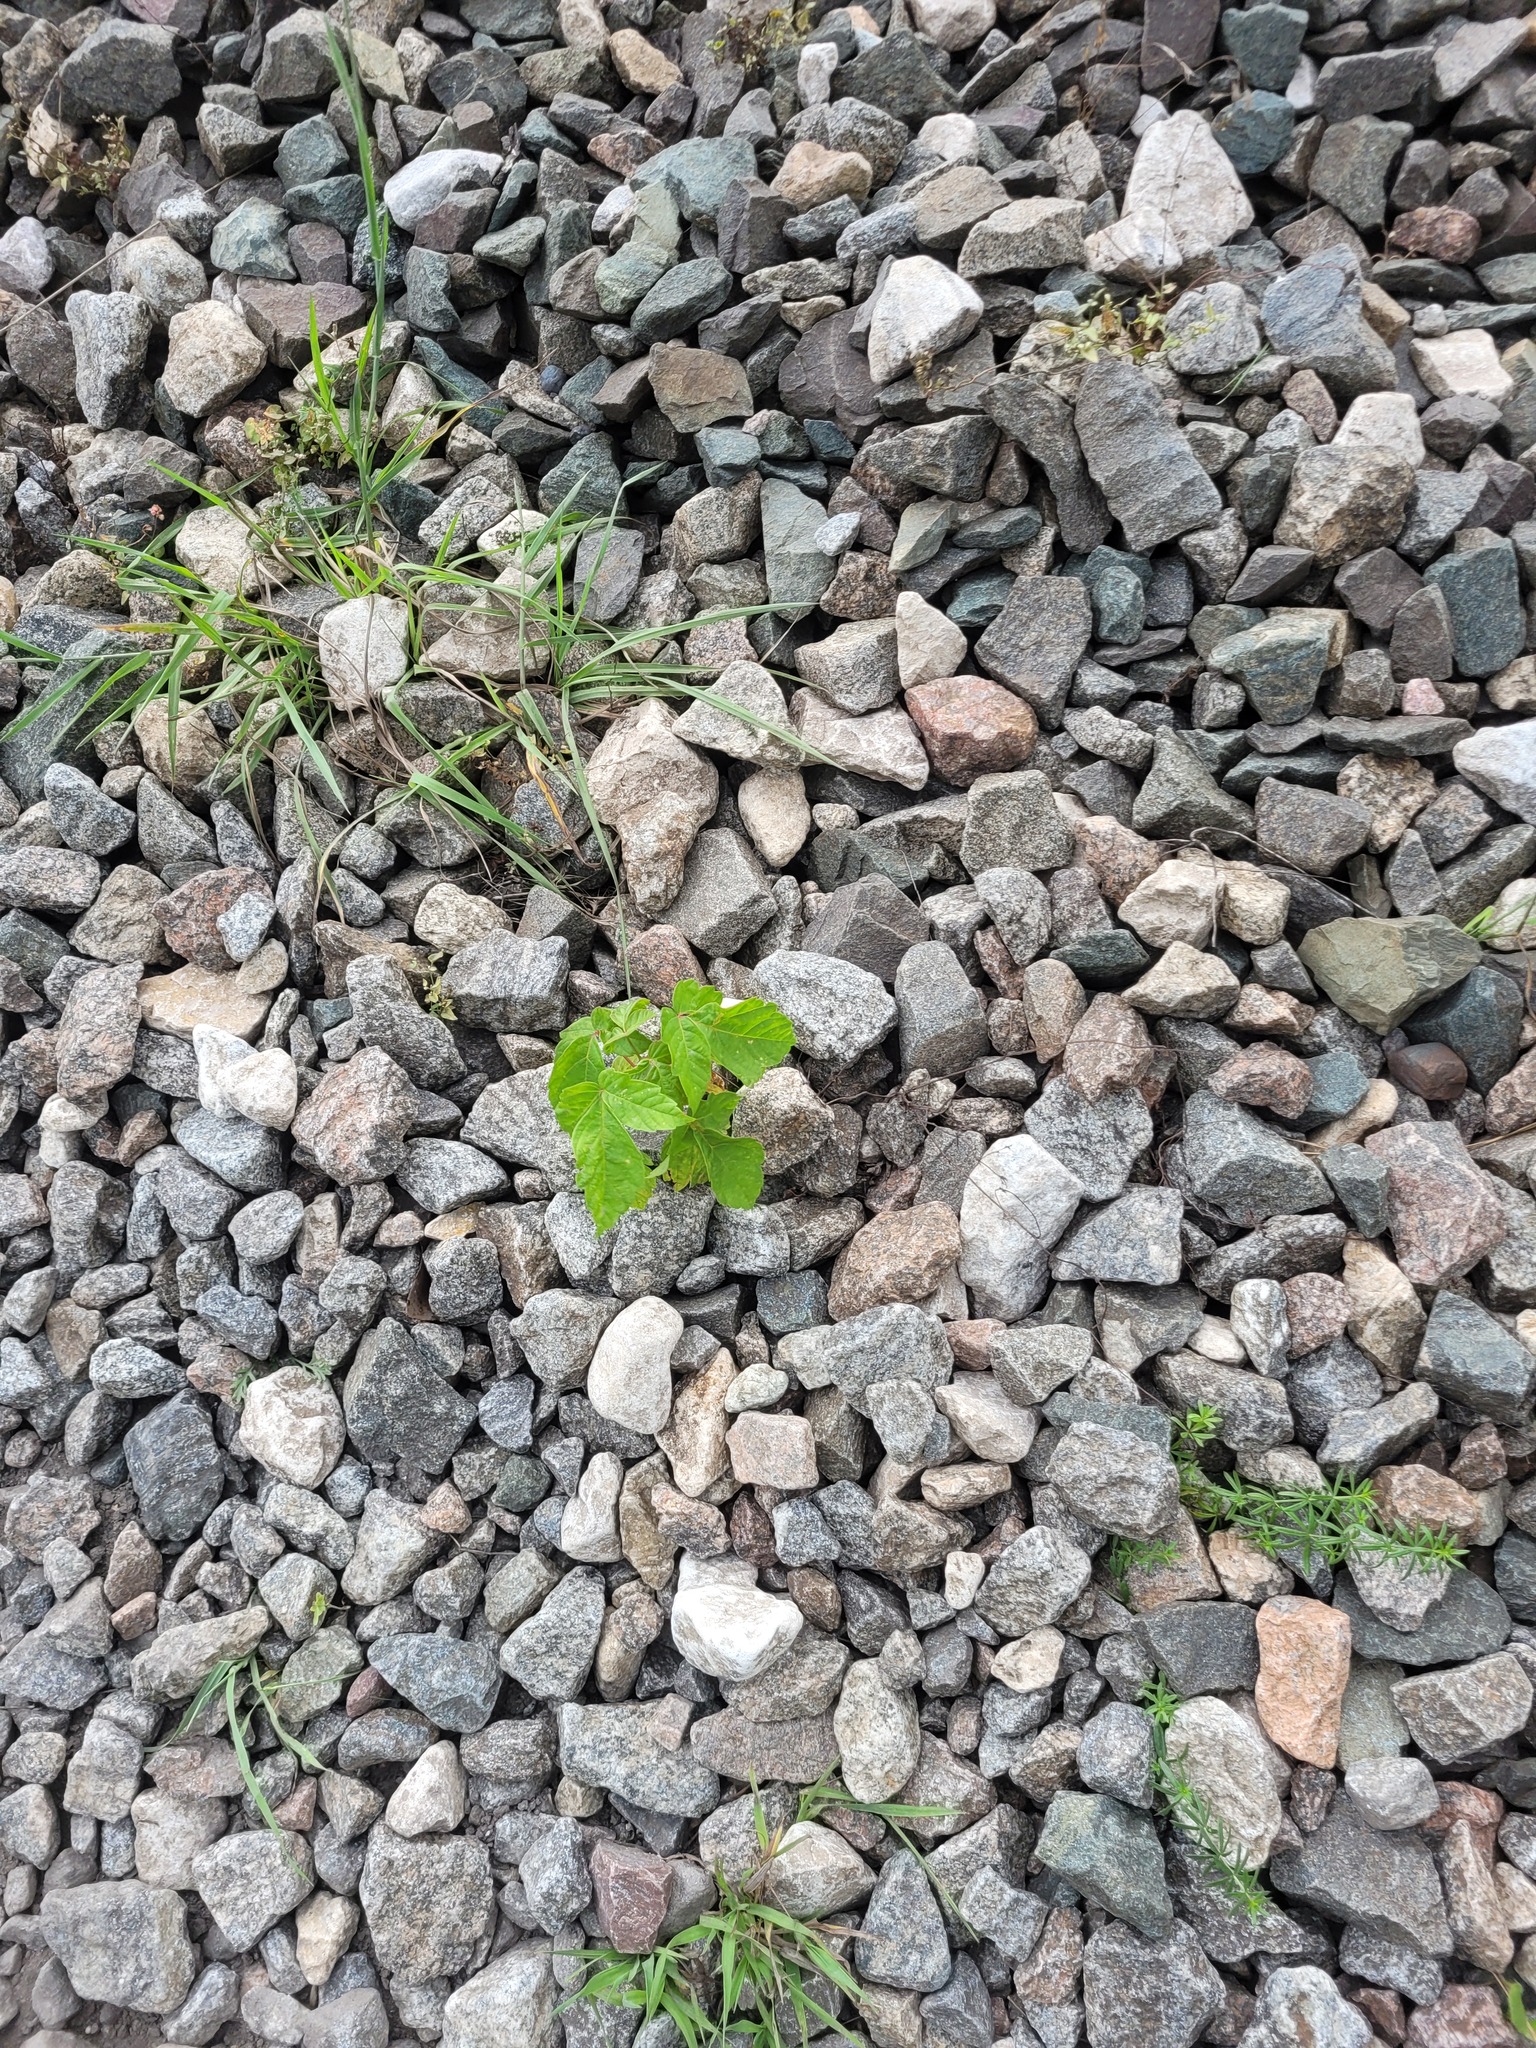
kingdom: Plantae
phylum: Tracheophyta
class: Magnoliopsida
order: Sapindales
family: Sapindaceae
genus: Acer
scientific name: Acer negundo
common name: Ashleaf maple
